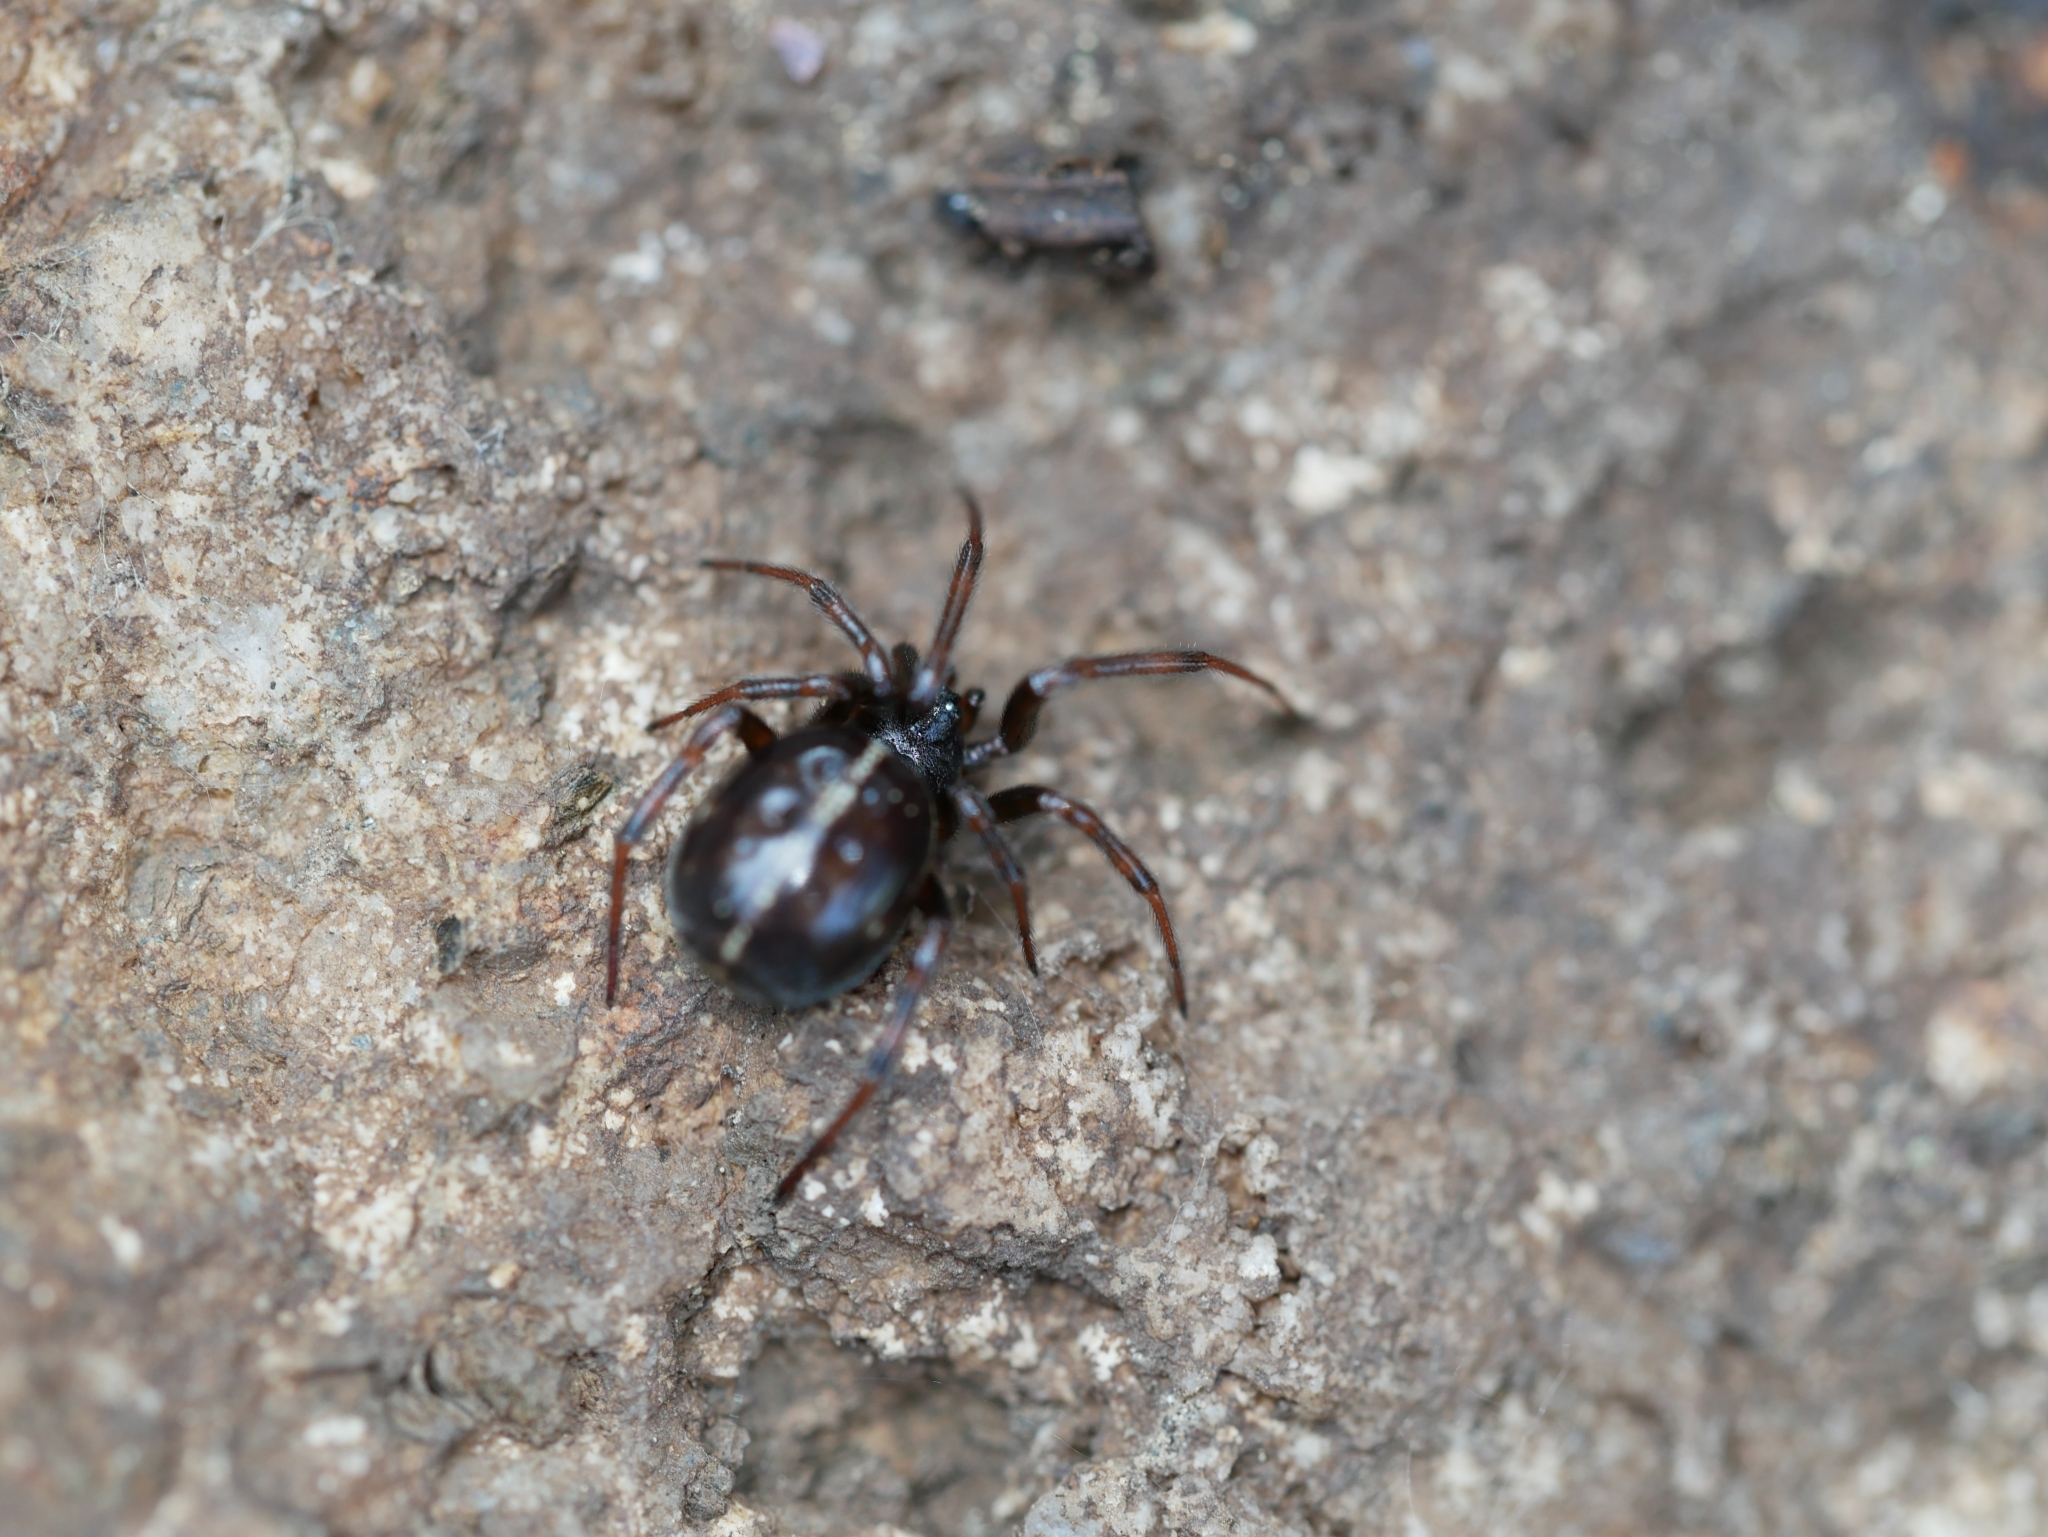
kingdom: Animalia
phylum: Arthropoda
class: Arachnida
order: Araneae
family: Theridiidae
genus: Steatoda
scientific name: Steatoda borealis
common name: Boreal combfoot
